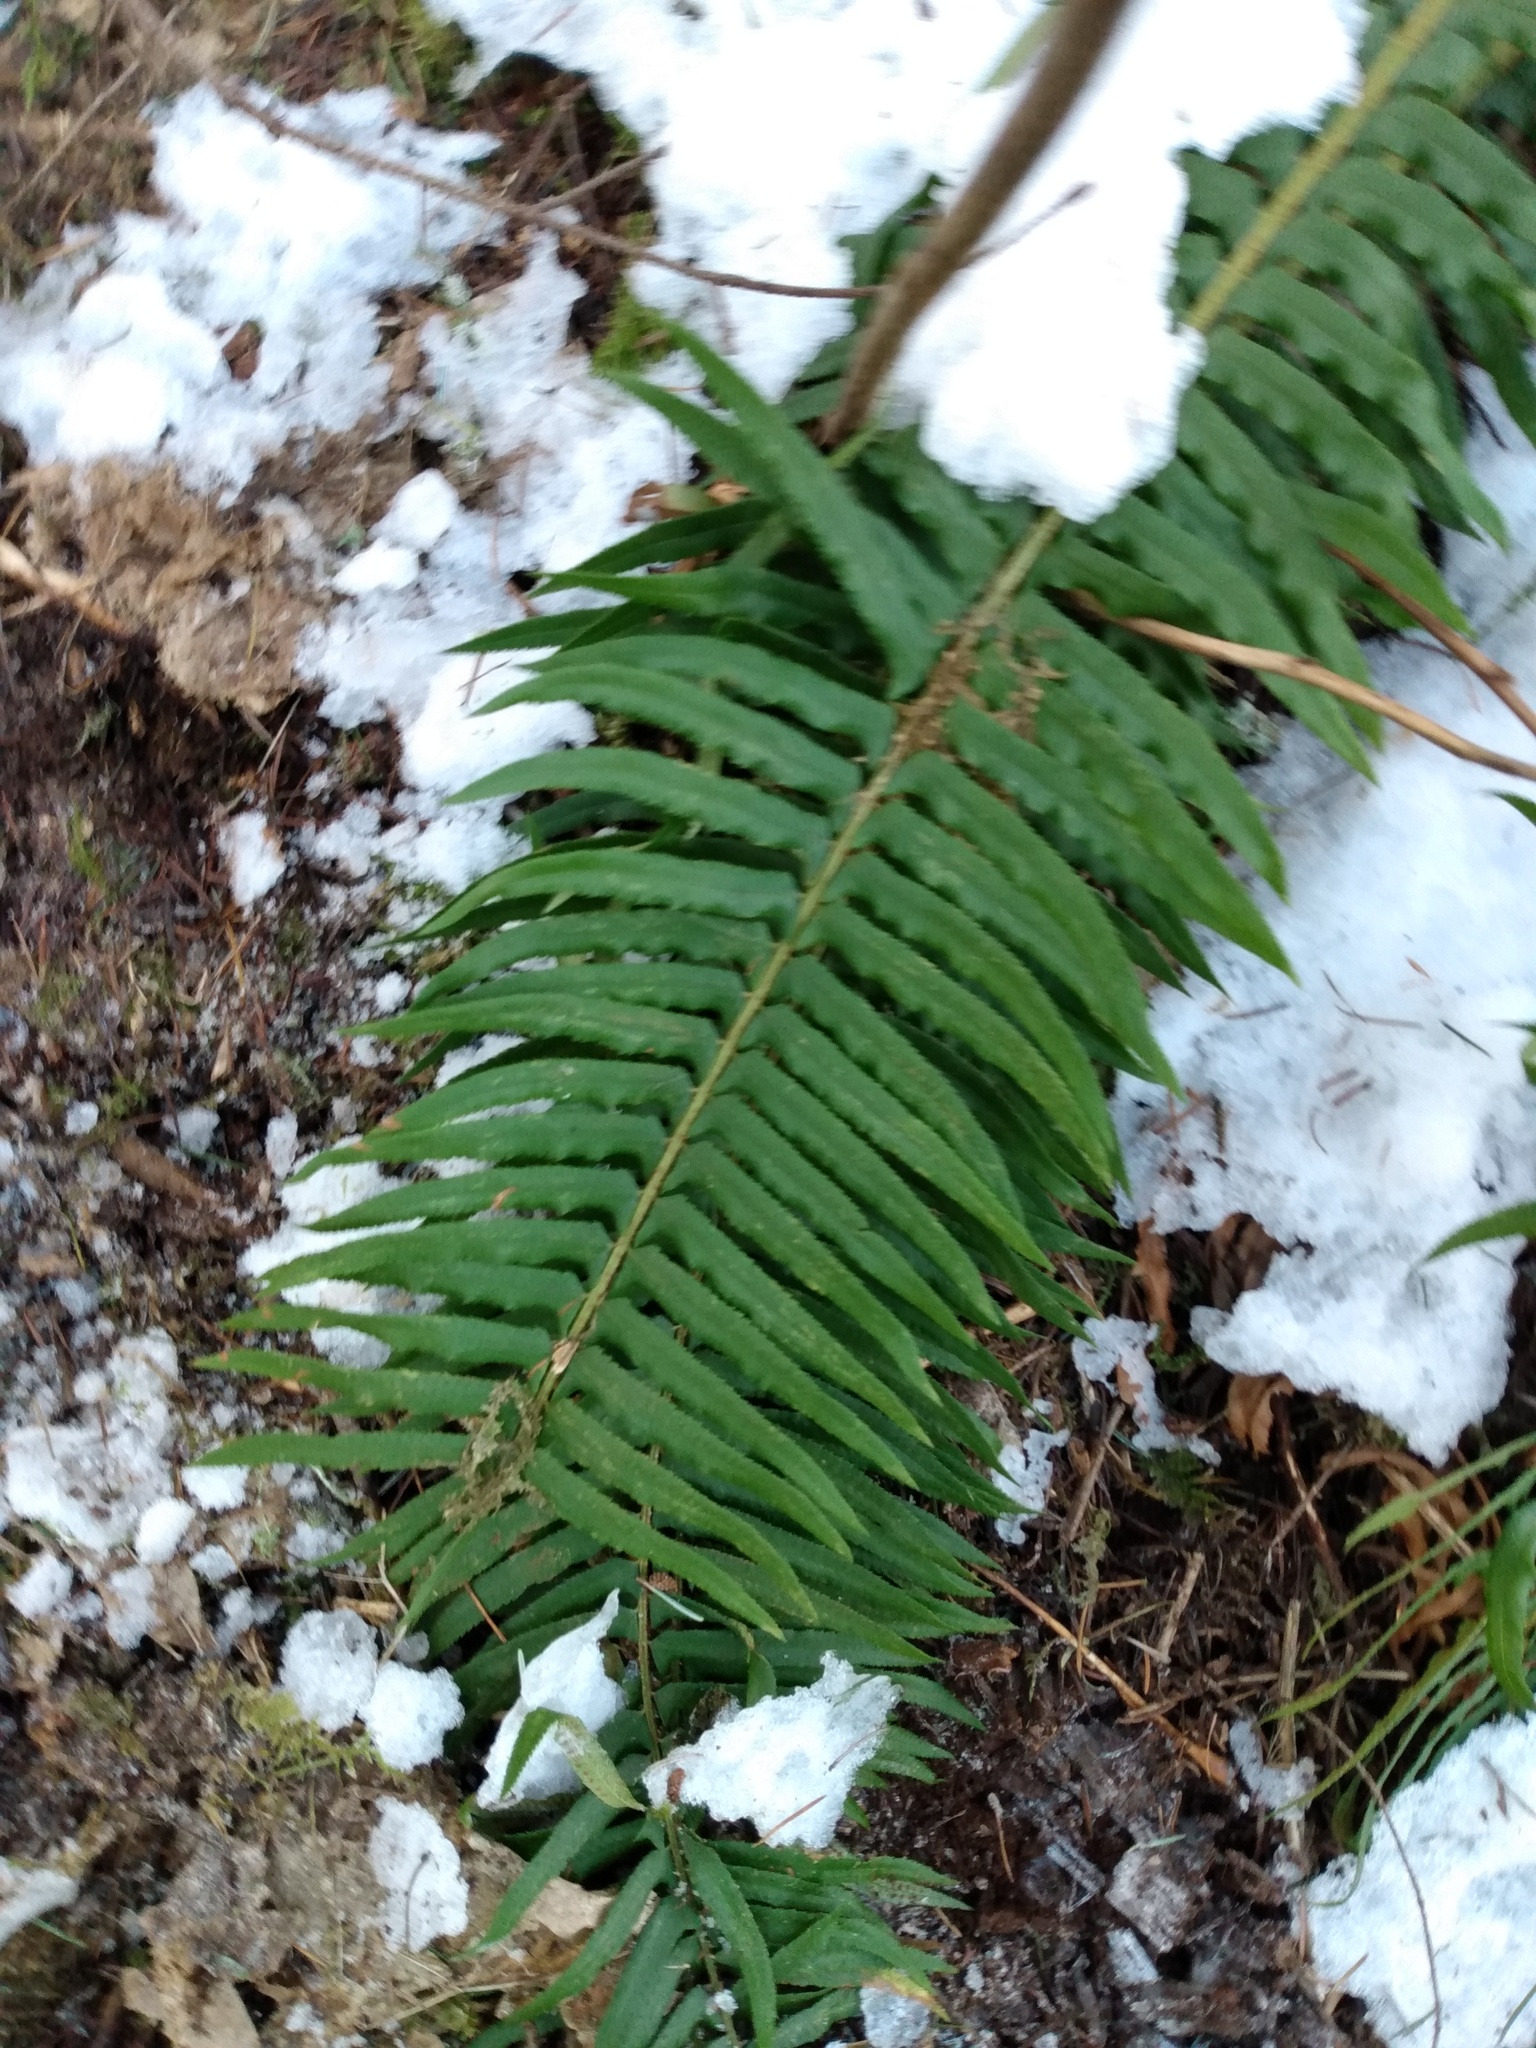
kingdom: Plantae
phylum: Tracheophyta
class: Polypodiopsida
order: Polypodiales
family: Dryopteridaceae
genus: Polystichum
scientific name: Polystichum munitum
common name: Western sword-fern
